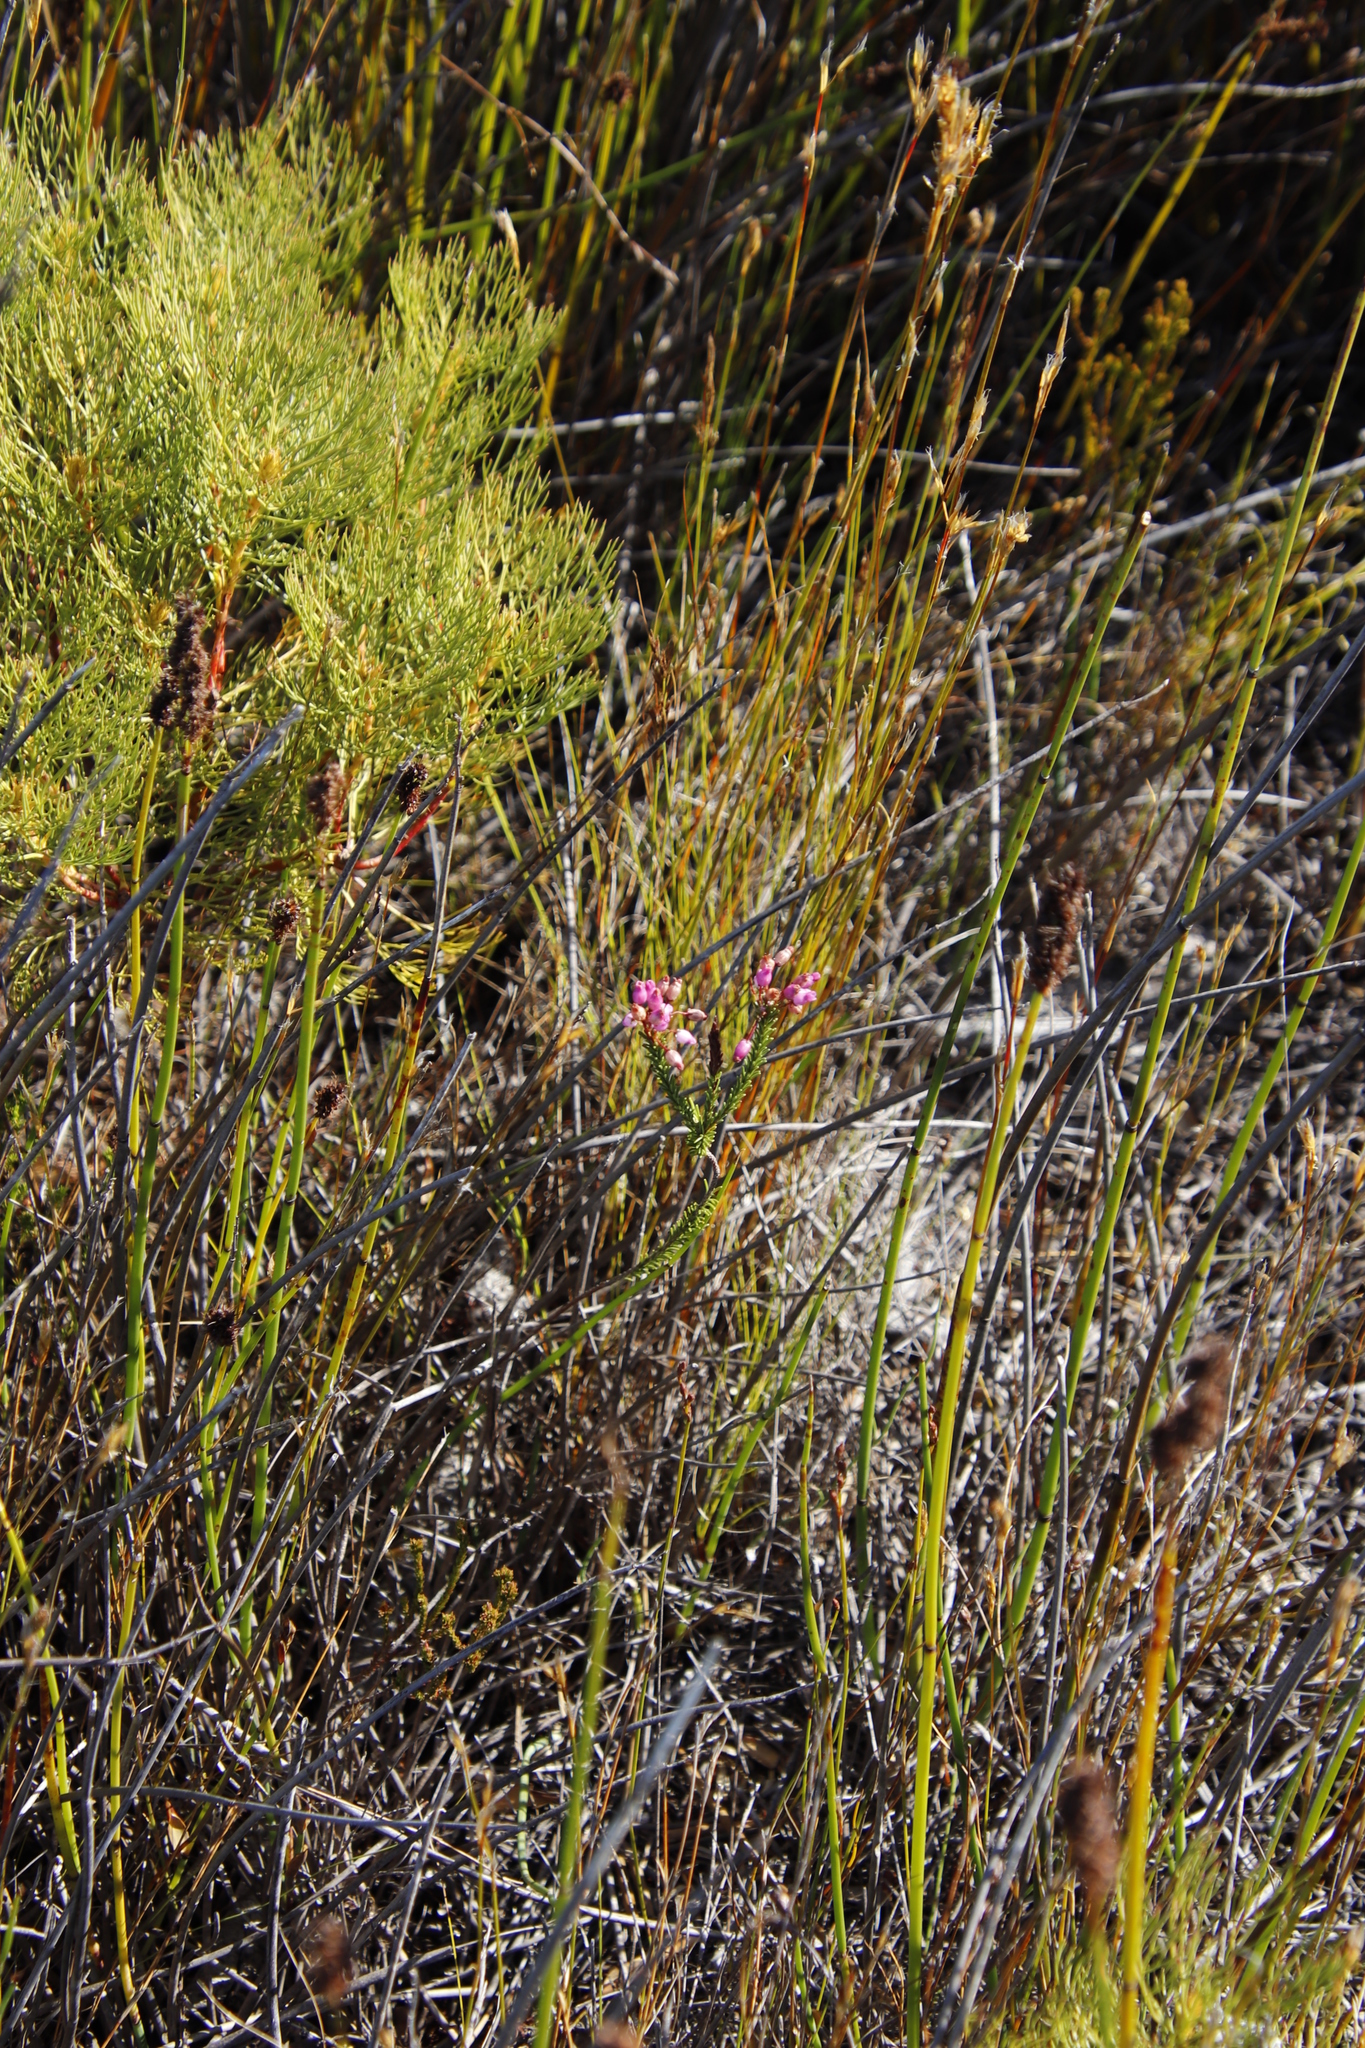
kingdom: Plantae
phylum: Tracheophyta
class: Magnoliopsida
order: Ericales
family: Ericaceae
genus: Erica
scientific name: Erica obliqua
